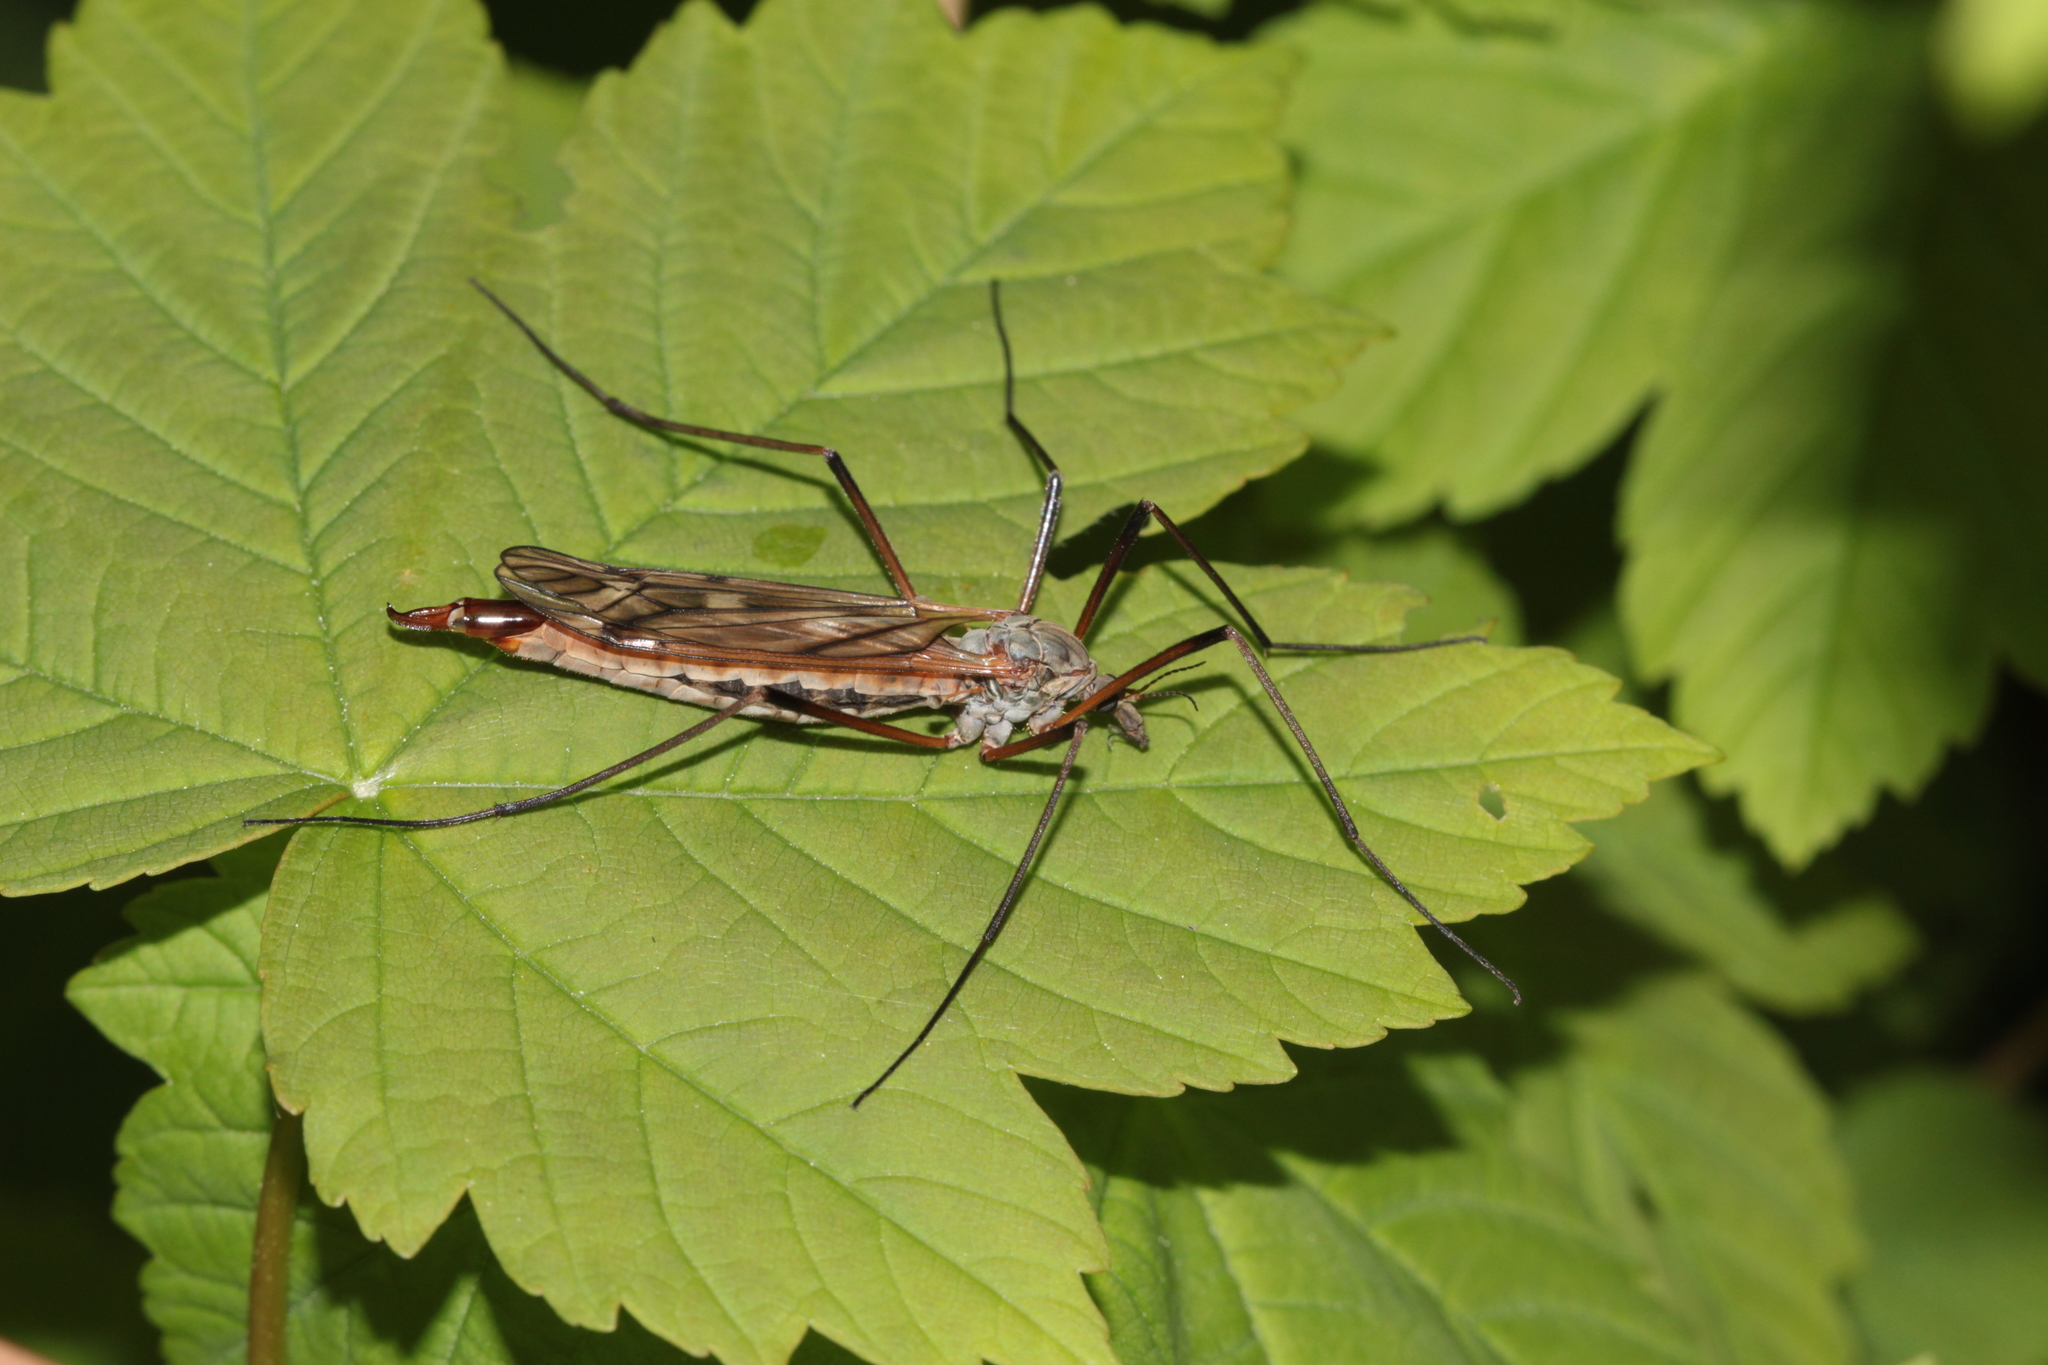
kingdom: Animalia
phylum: Arthropoda
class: Insecta
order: Diptera
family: Tipulidae
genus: Tipula
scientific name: Tipula hortorum
